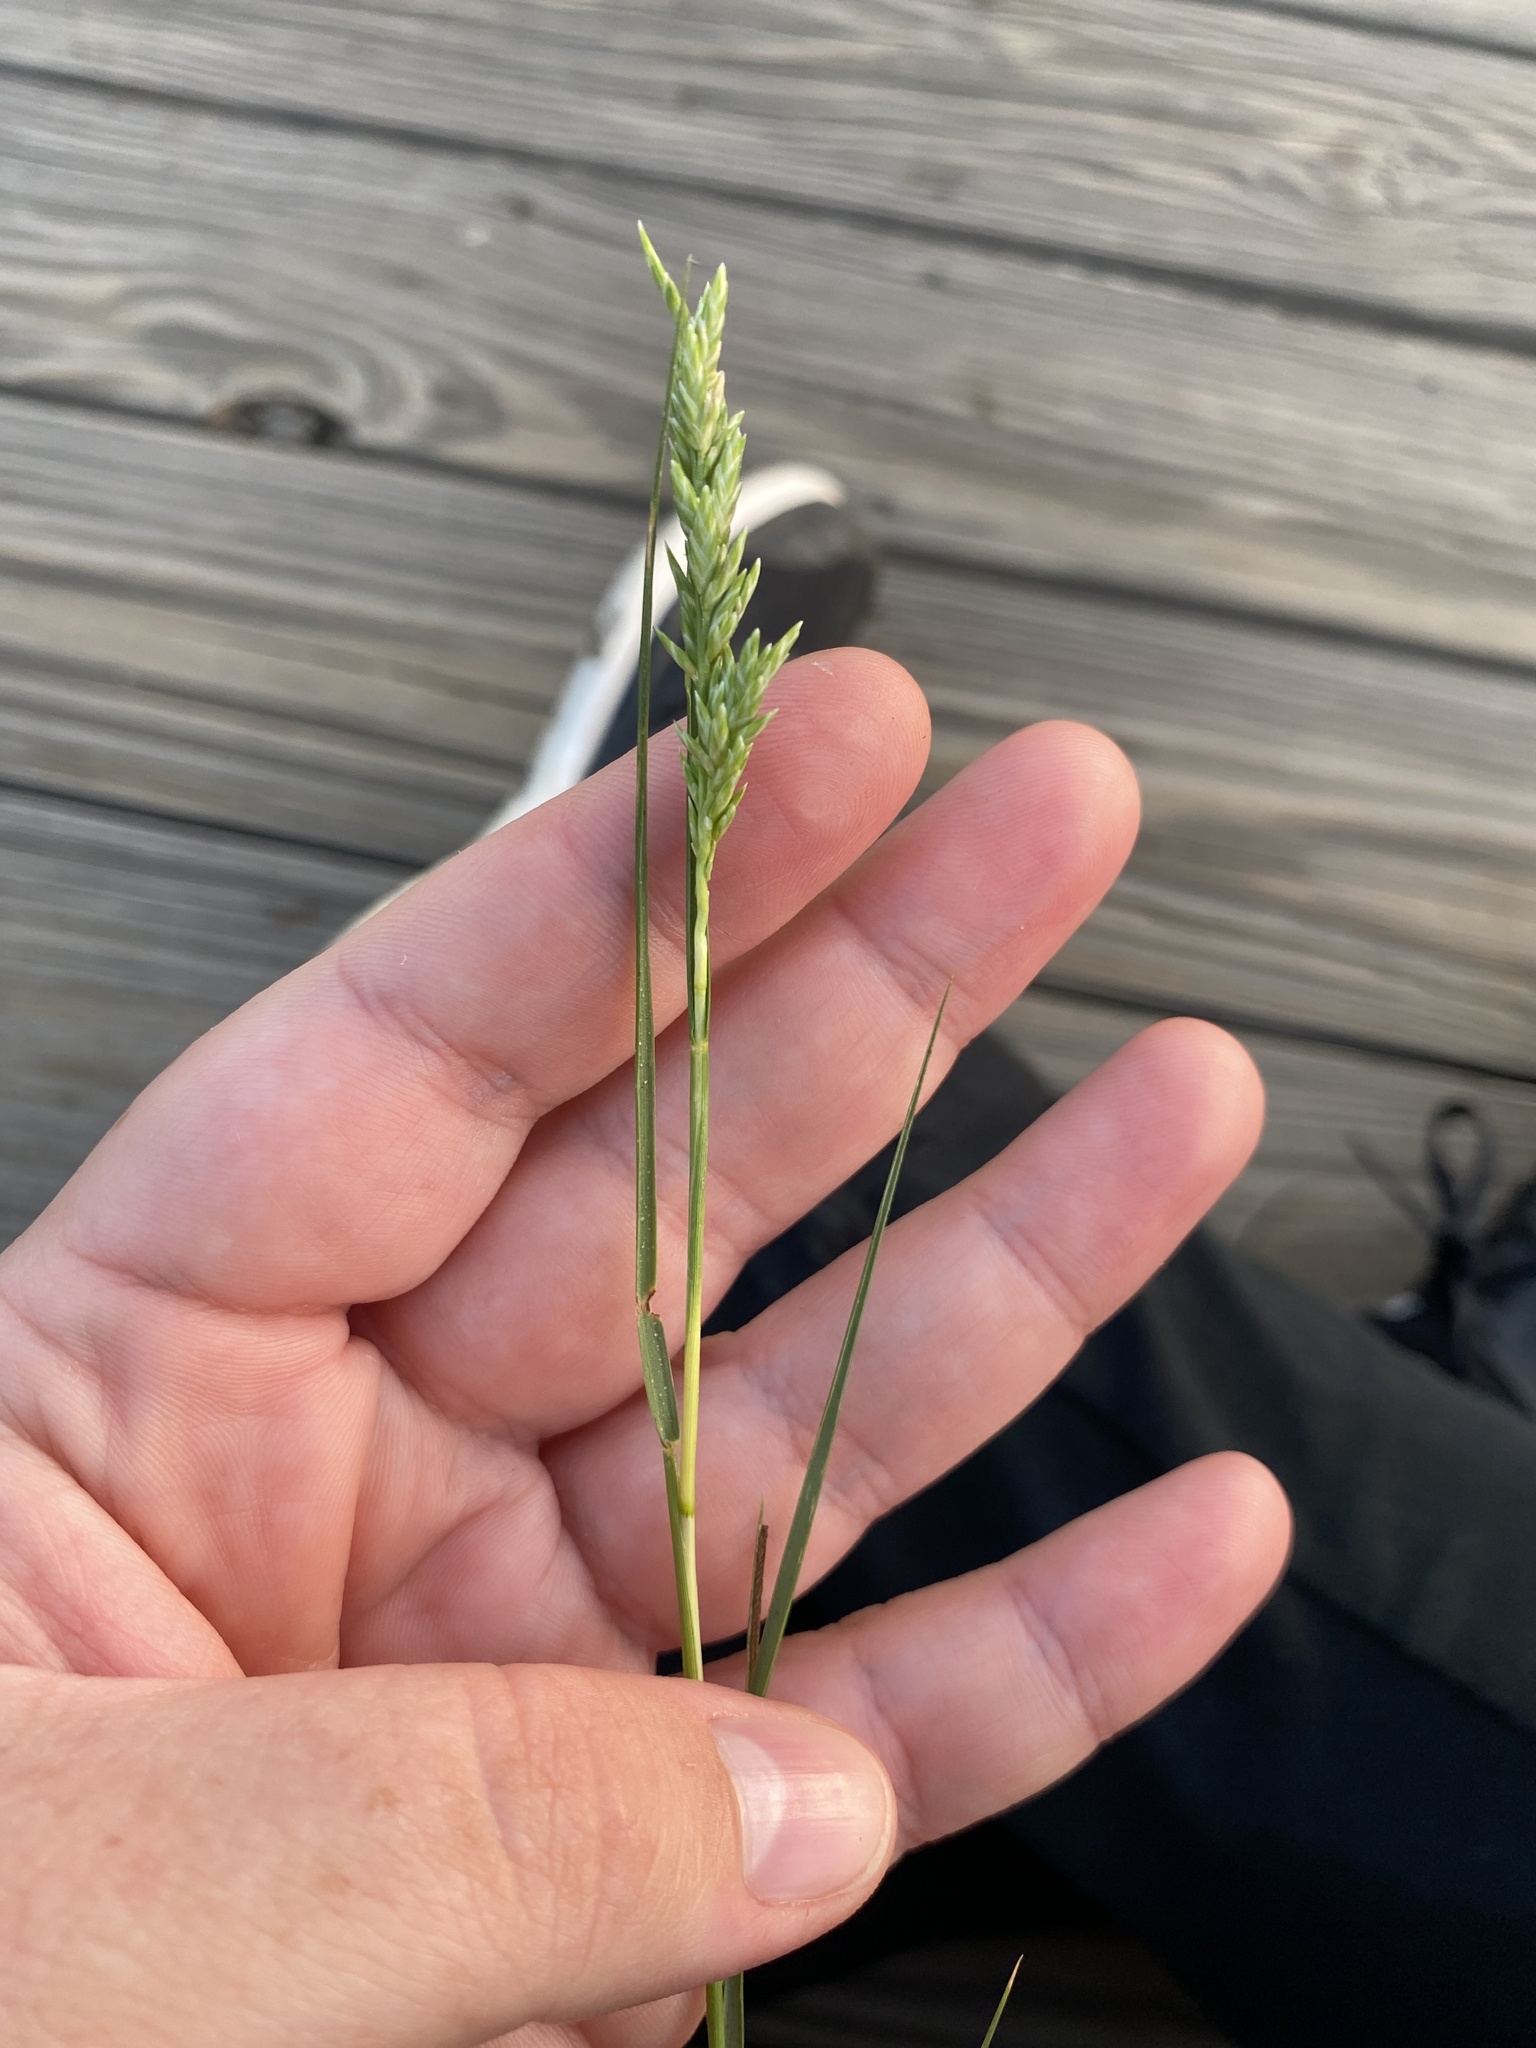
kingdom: Plantae
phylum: Tracheophyta
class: Liliopsida
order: Poales
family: Poaceae
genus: Distichlis
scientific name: Distichlis spicata
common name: Saltgrass
